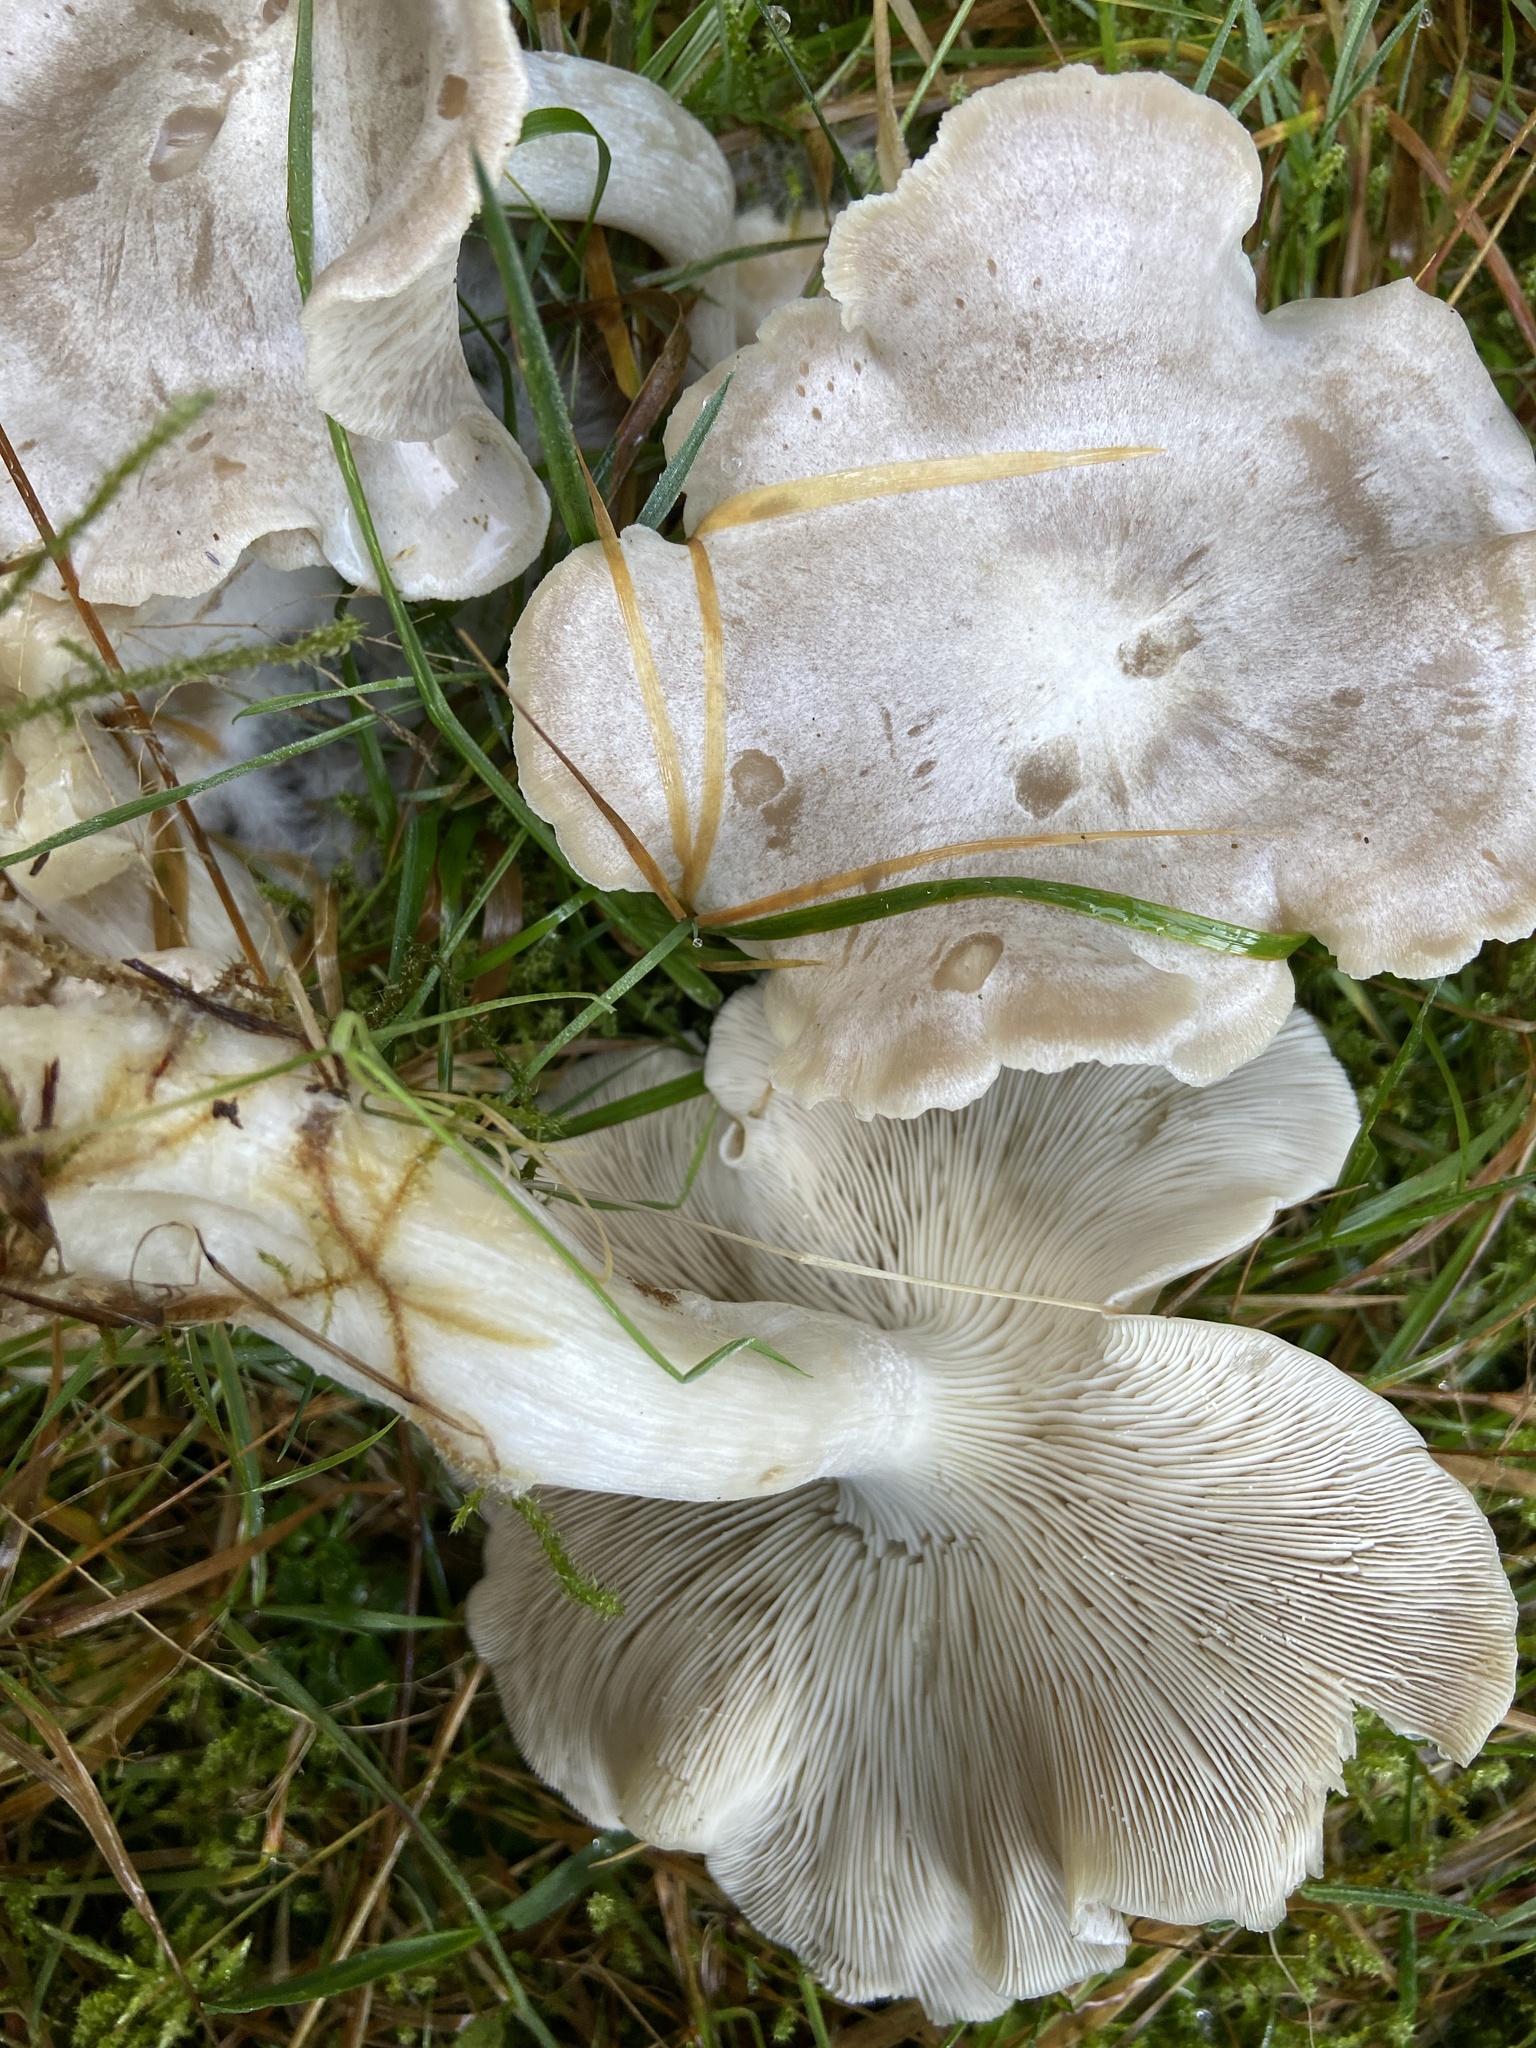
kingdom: Fungi
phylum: Basidiomycota
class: Agaricomycetes
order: Agaricales
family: Tricholomataceae
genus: Leucocybe
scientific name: Leucocybe connata
